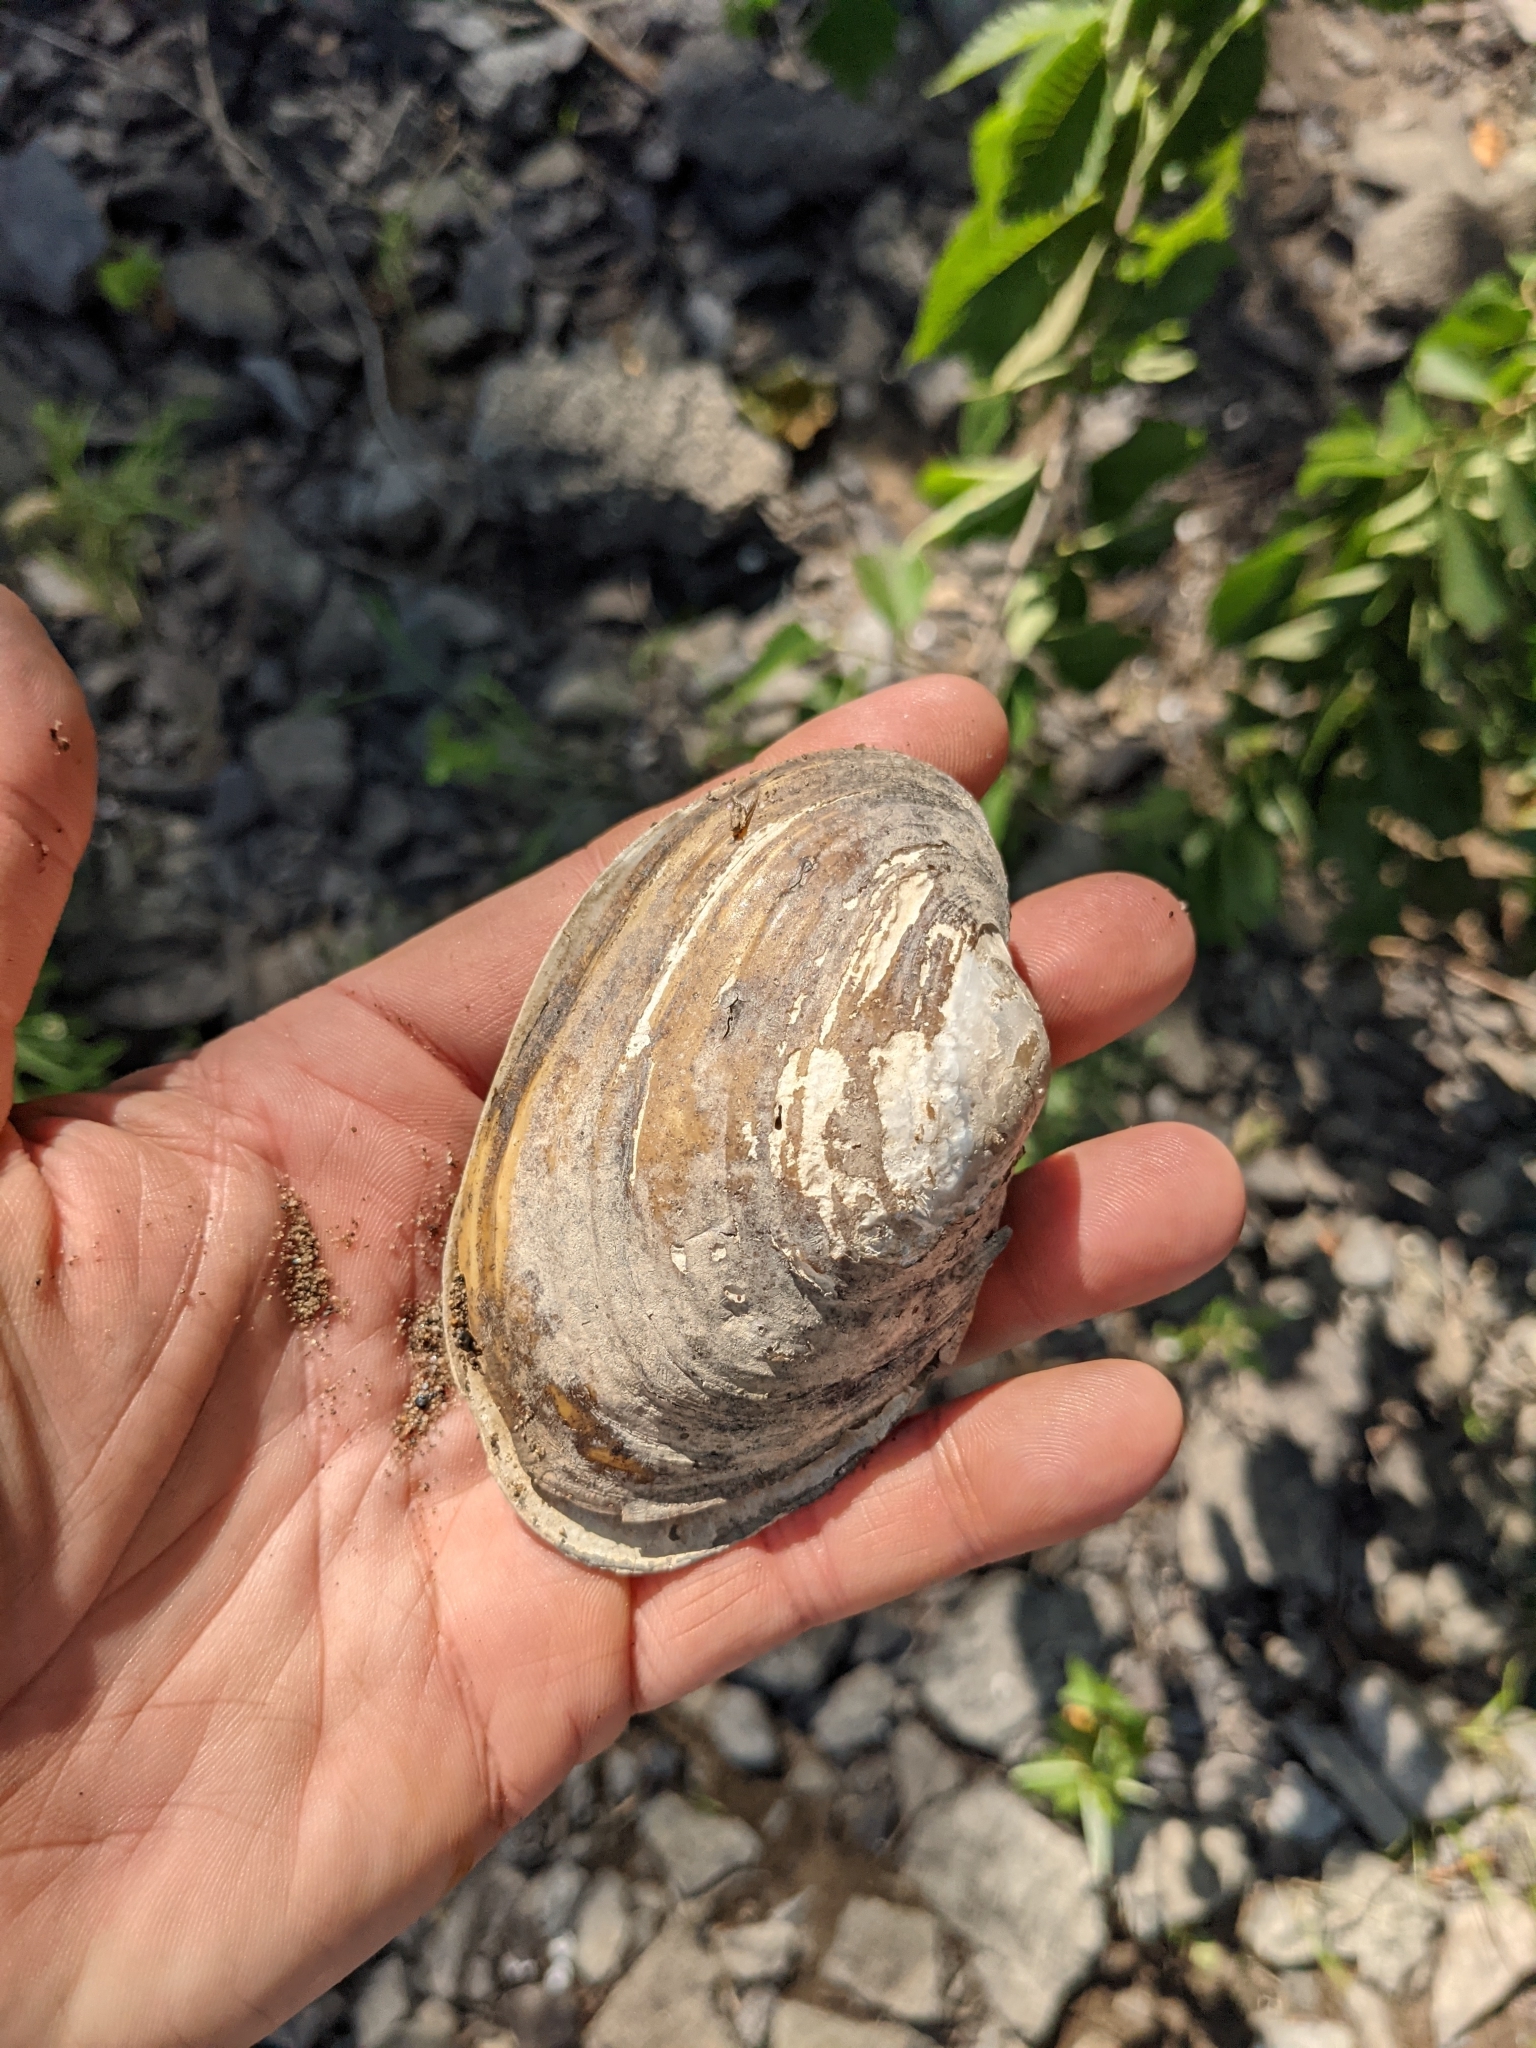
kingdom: Animalia
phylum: Mollusca
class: Bivalvia
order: Unionida
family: Unionidae
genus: Lampsilis
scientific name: Lampsilis cariosa
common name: Yellow lampmussel
